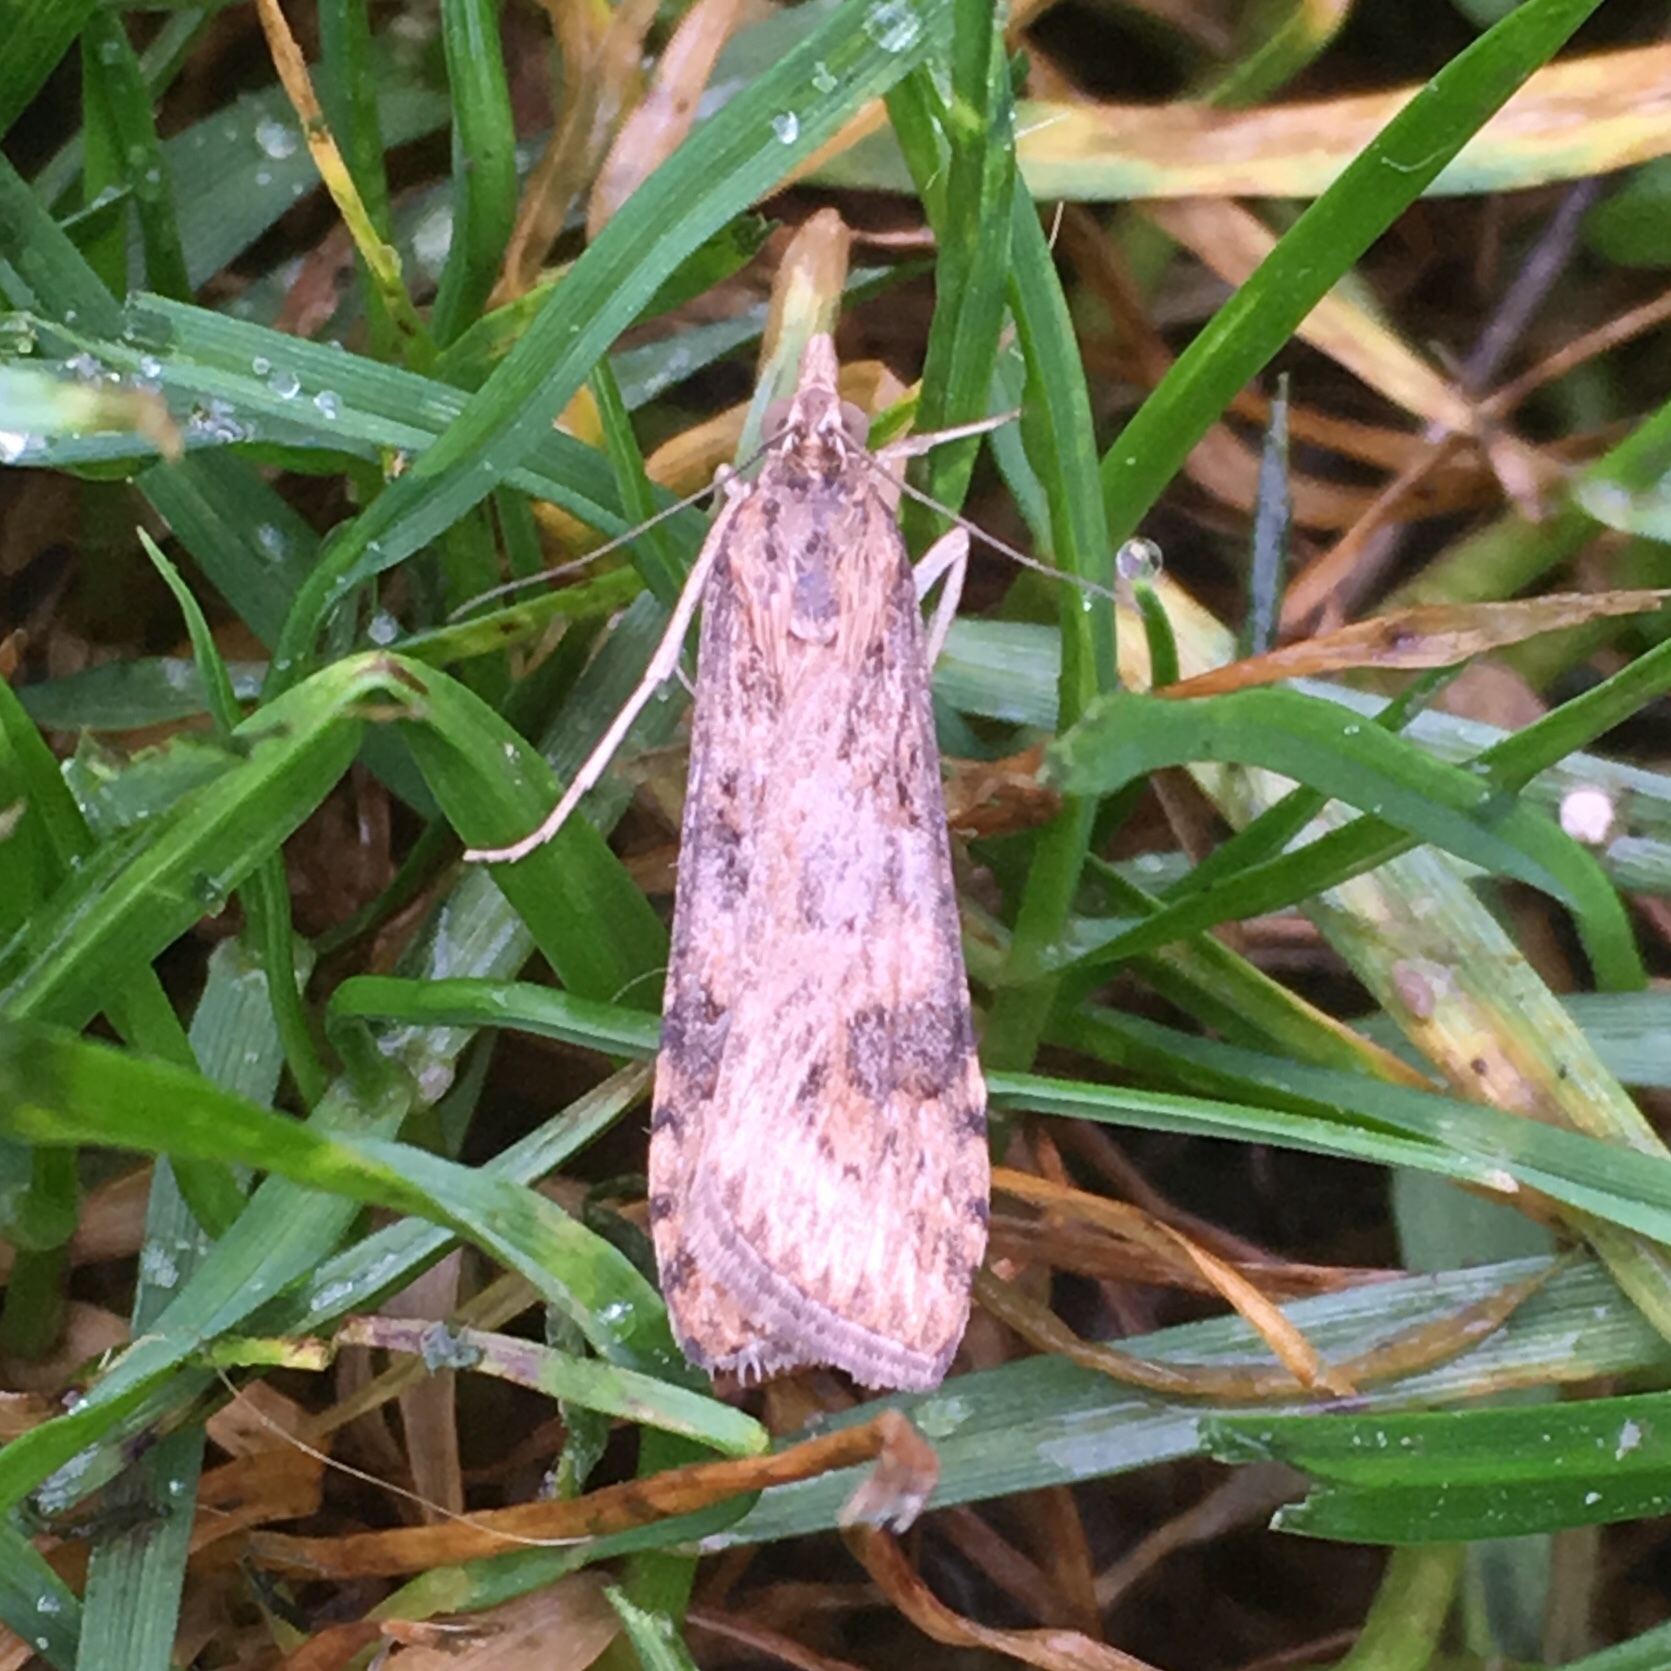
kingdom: Animalia
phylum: Arthropoda
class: Insecta
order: Lepidoptera
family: Crambidae
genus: Nomophila
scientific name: Nomophila nearctica
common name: American rush veneer
